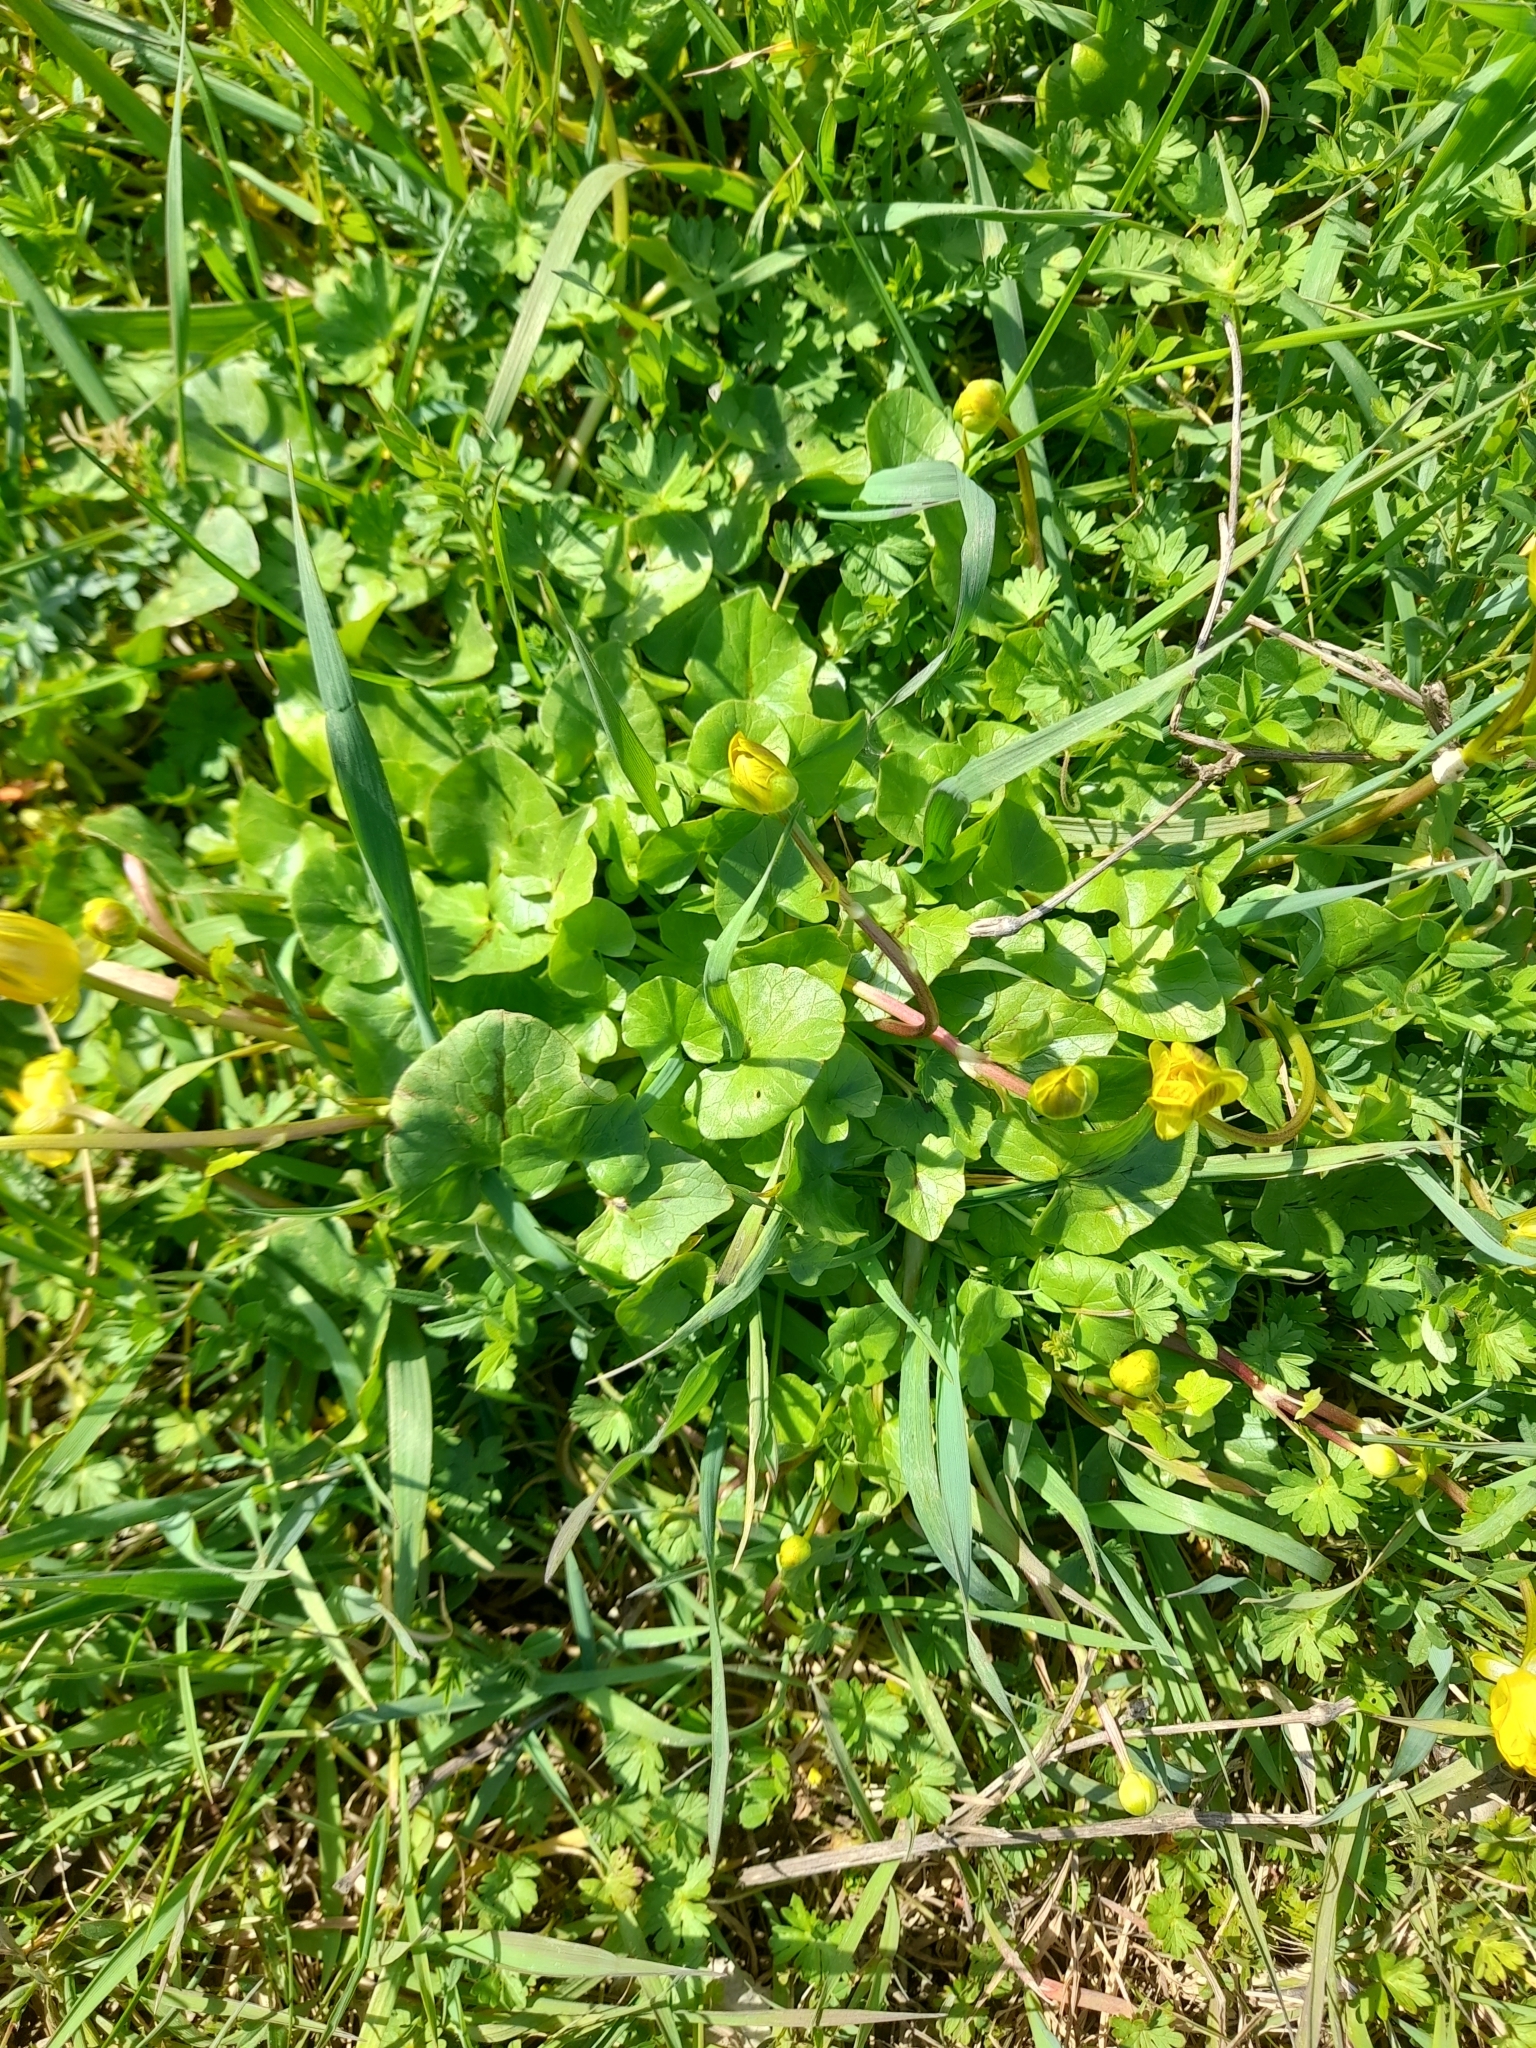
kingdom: Plantae
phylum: Tracheophyta
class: Magnoliopsida
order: Ranunculales
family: Ranunculaceae
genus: Ficaria
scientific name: Ficaria verna
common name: Lesser celandine
